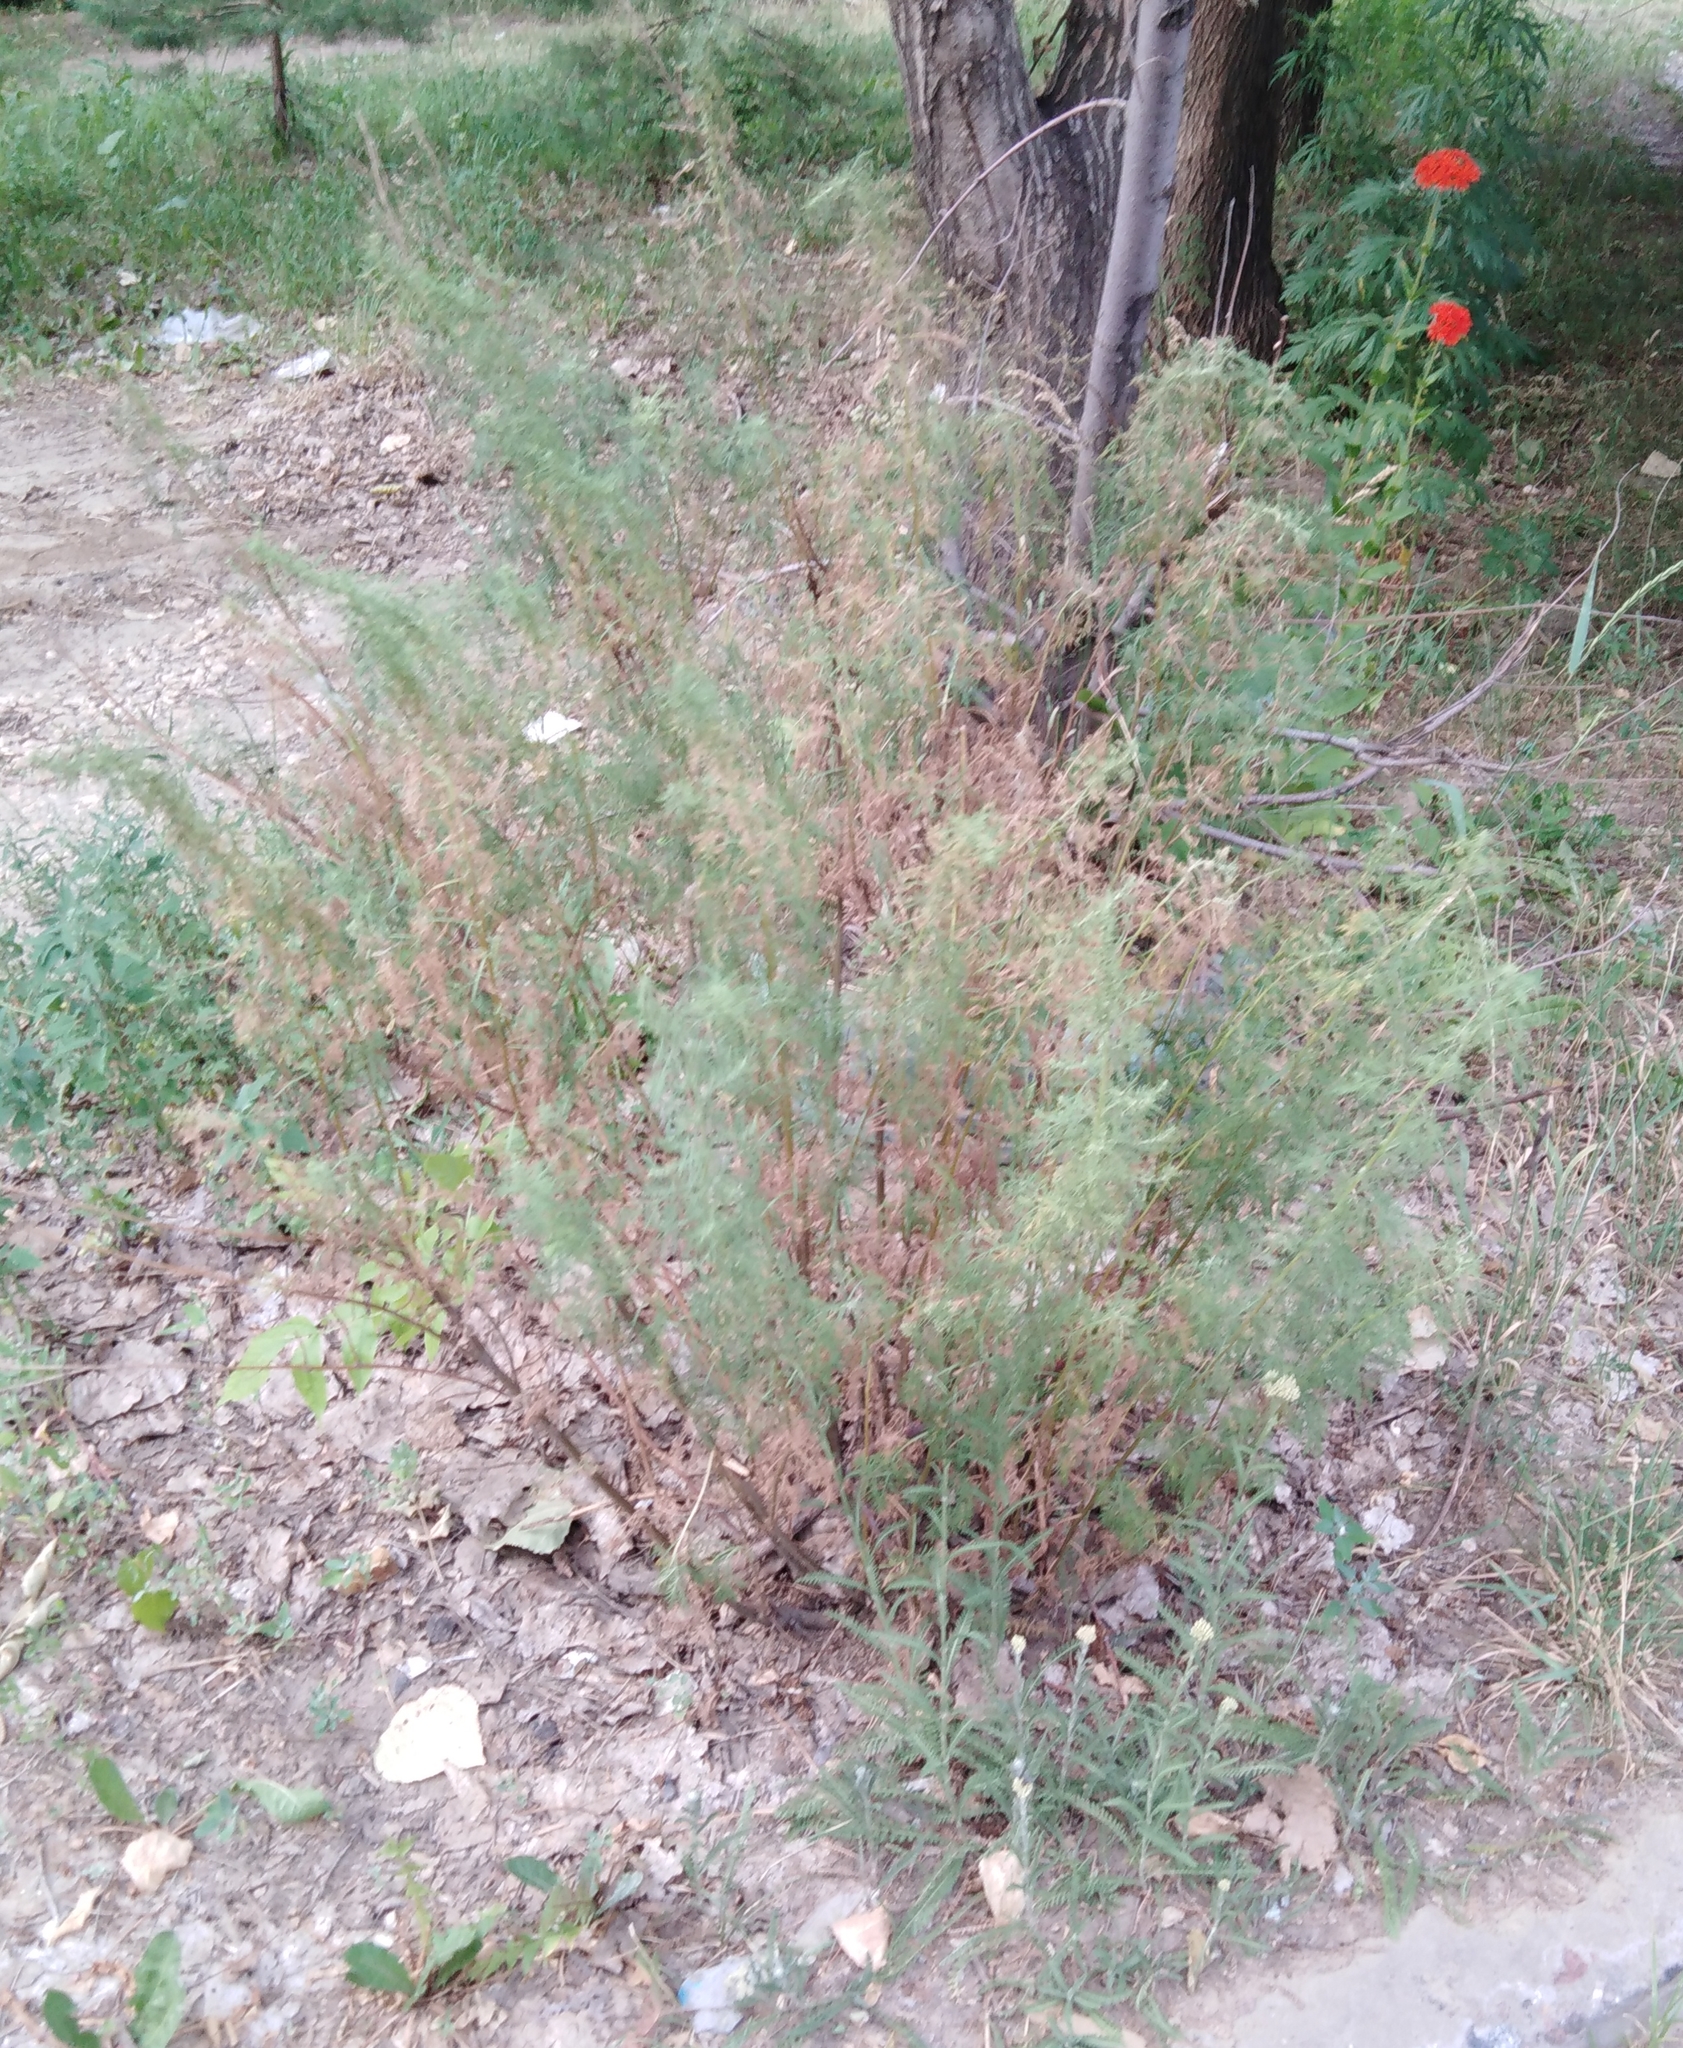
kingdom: Plantae
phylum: Tracheophyta
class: Magnoliopsida
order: Asterales
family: Asteraceae
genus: Artemisia
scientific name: Artemisia abrotanum
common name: Southernwood
